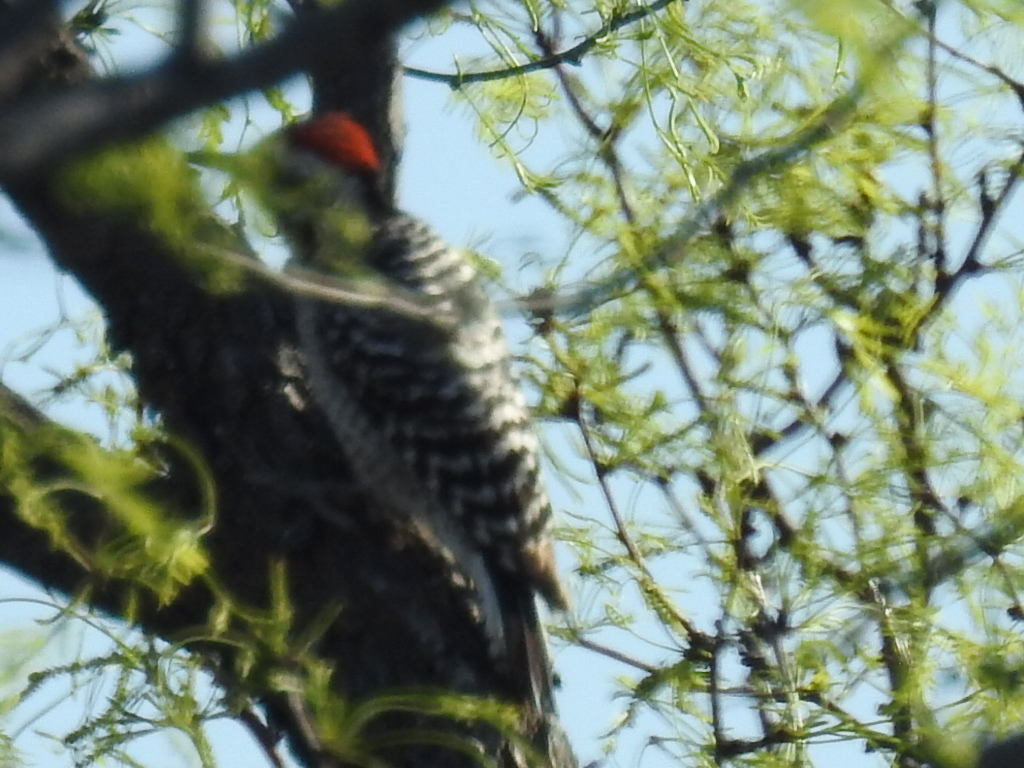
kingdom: Animalia
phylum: Chordata
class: Aves
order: Piciformes
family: Picidae
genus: Dryobates
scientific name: Dryobates scalaris
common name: Ladder-backed woodpecker
